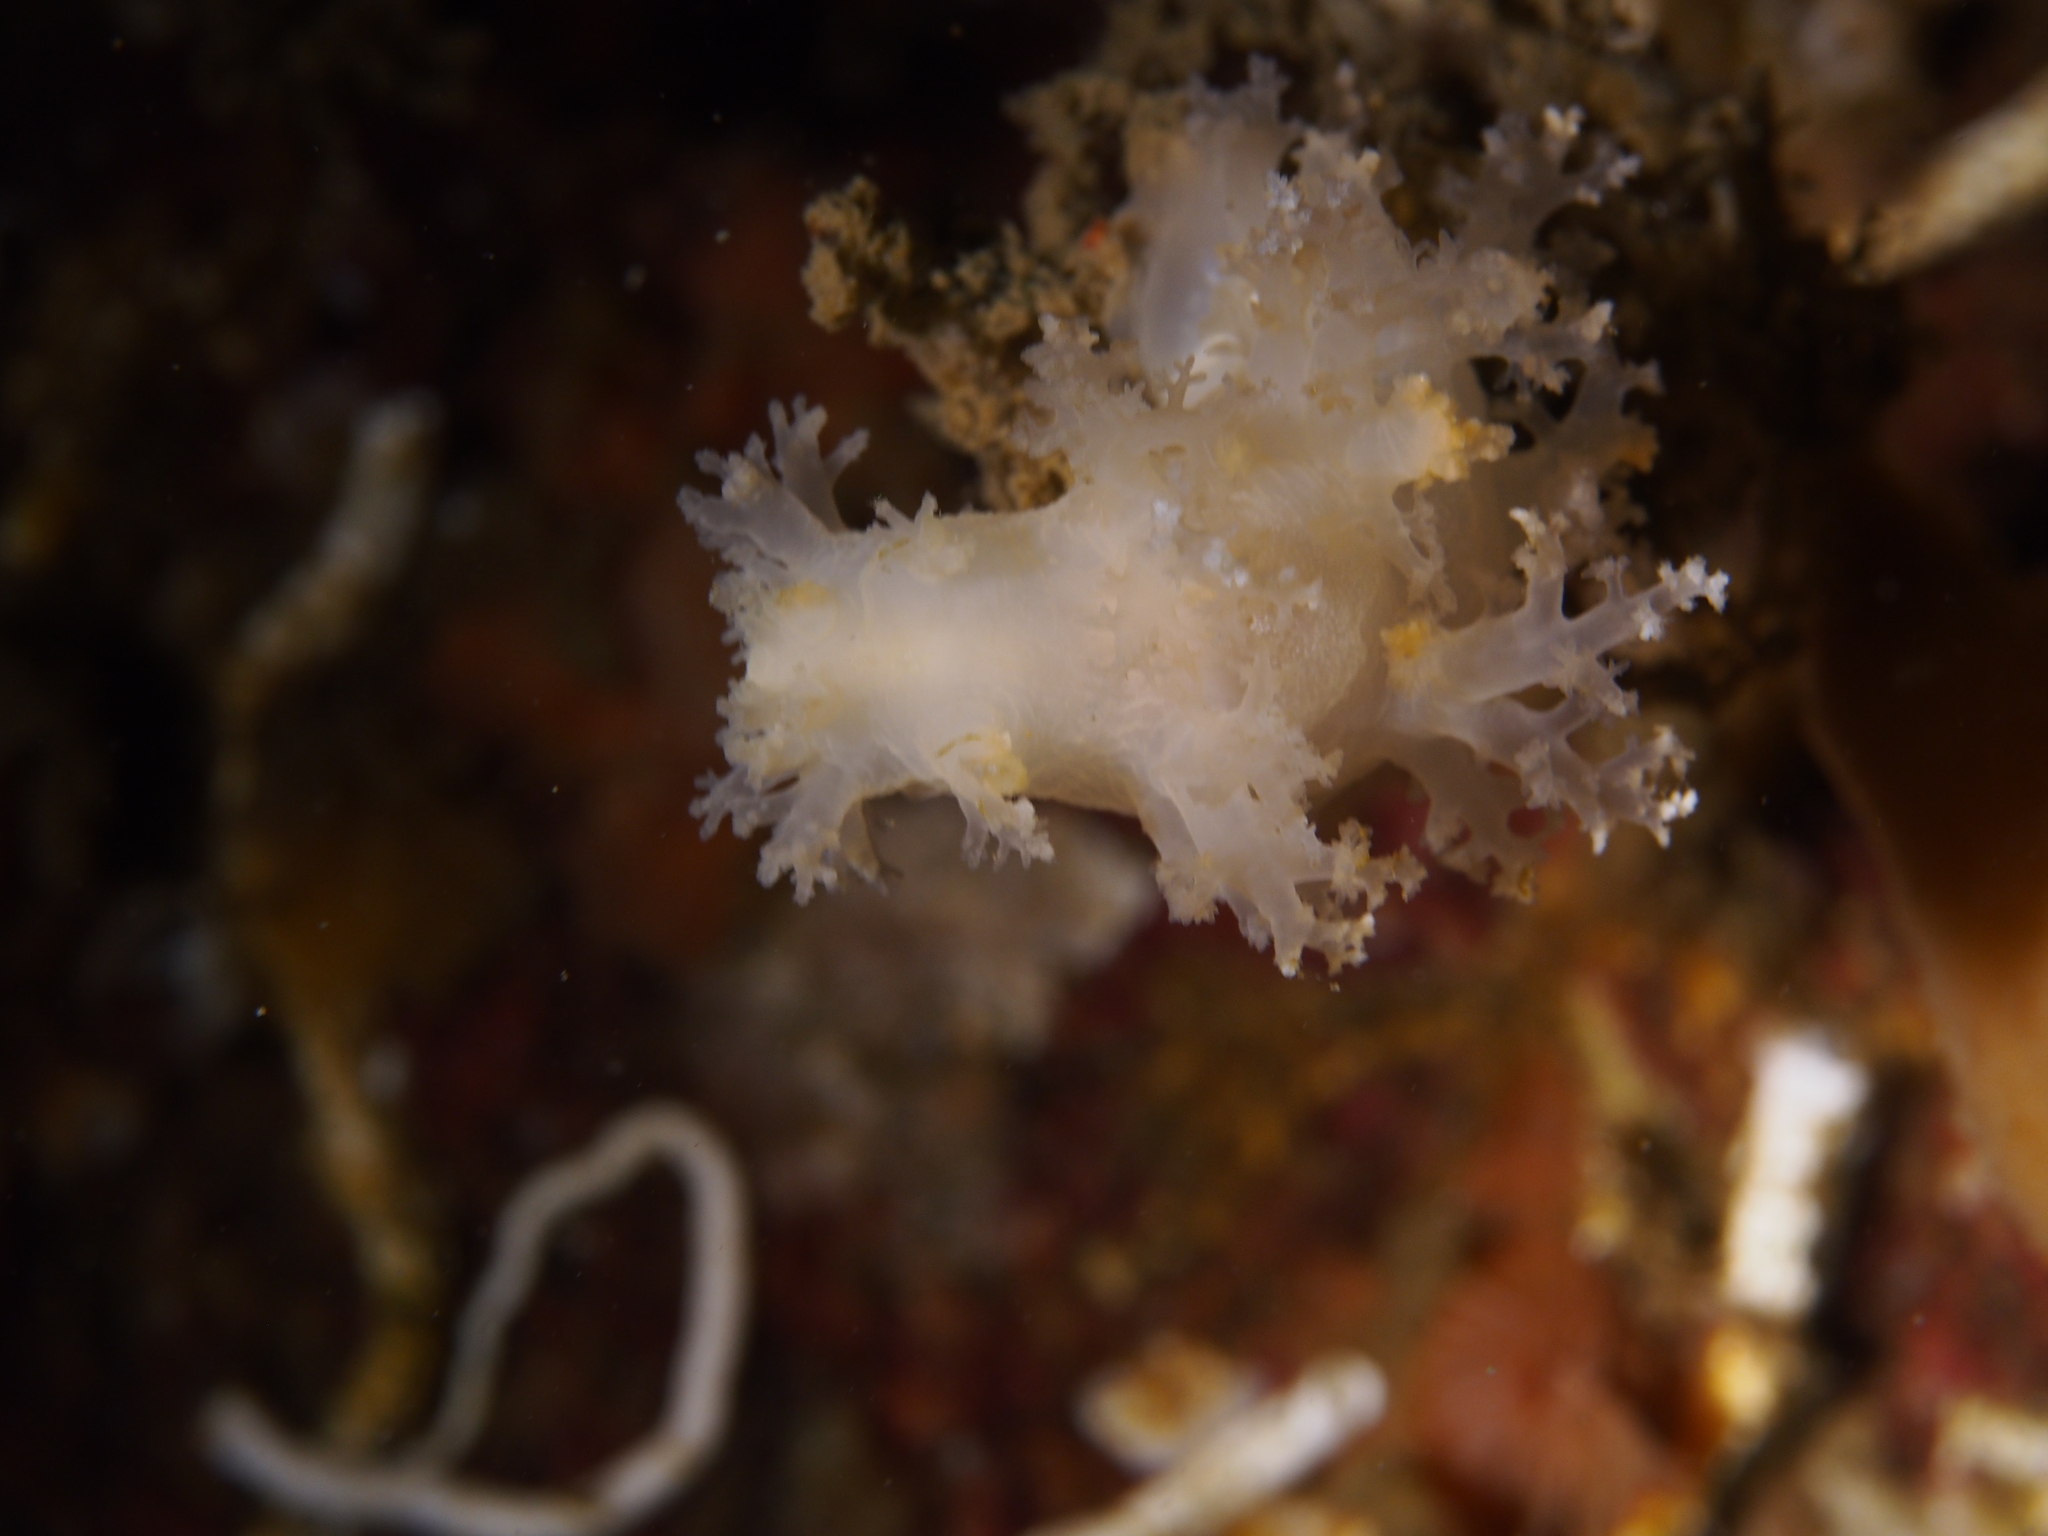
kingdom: Animalia
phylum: Mollusca
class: Gastropoda
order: Nudibranchia
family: Dendronotidae
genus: Dendronotus
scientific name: Dendronotus lacteus
